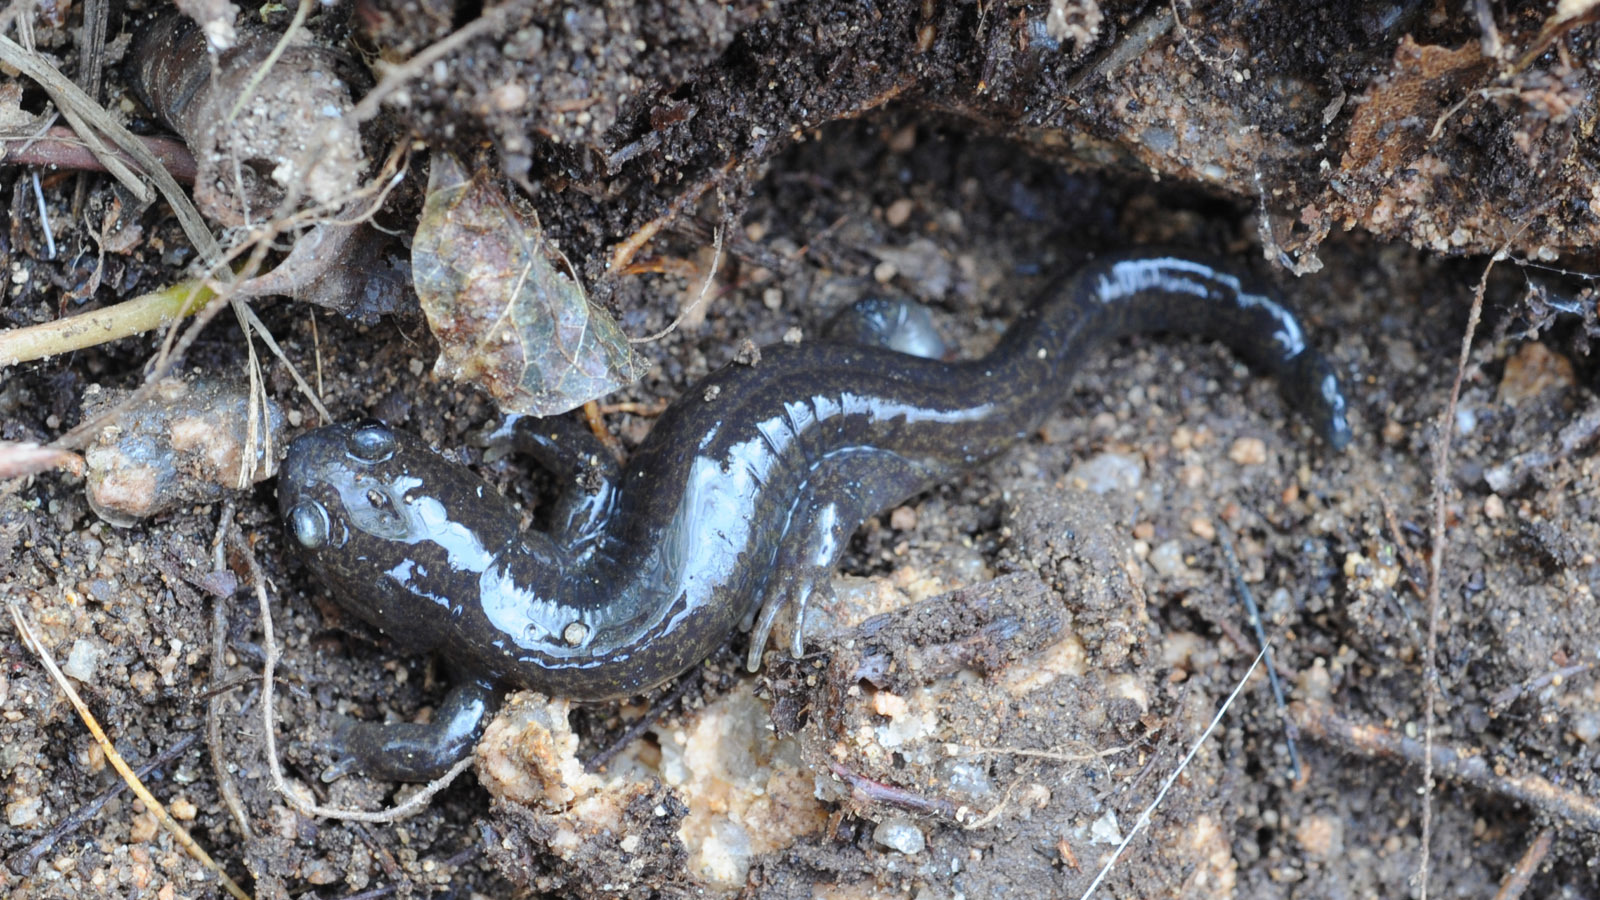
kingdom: Animalia
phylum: Chordata
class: Amphibia
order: Caudata
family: Hynobiidae
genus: Hynobius
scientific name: Hynobius leechii
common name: Gensan salamander
